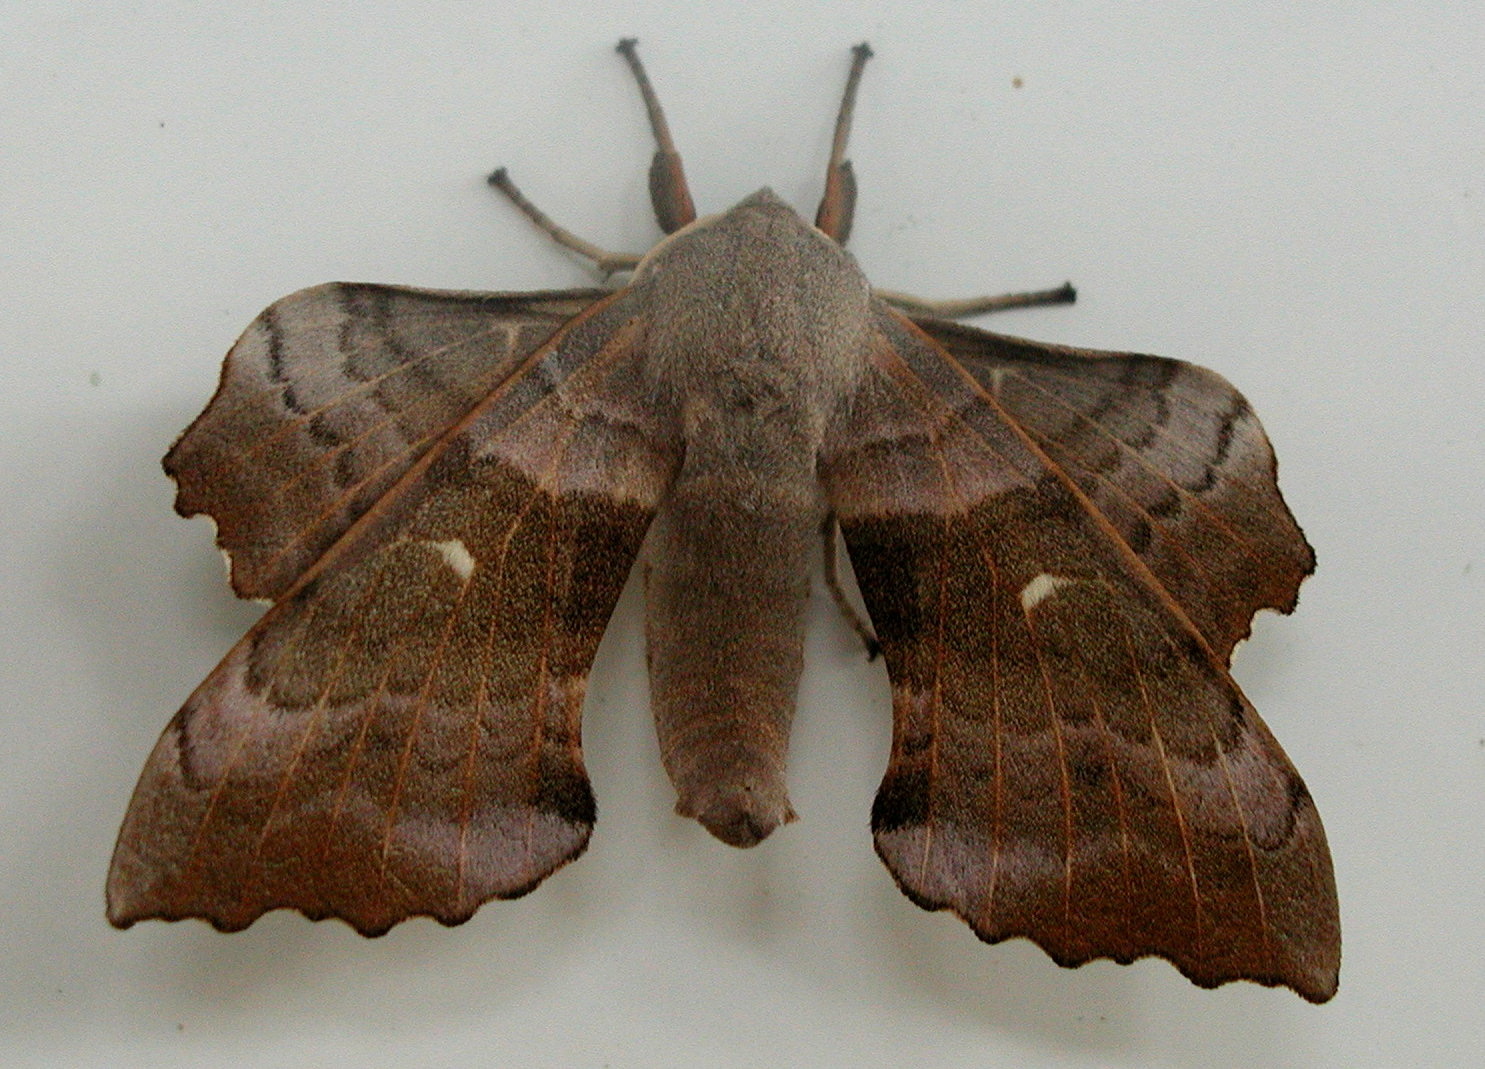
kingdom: Animalia
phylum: Arthropoda
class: Insecta
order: Lepidoptera
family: Sphingidae
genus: Laothoe
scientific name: Laothoe populi
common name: Poplar hawk-moth
